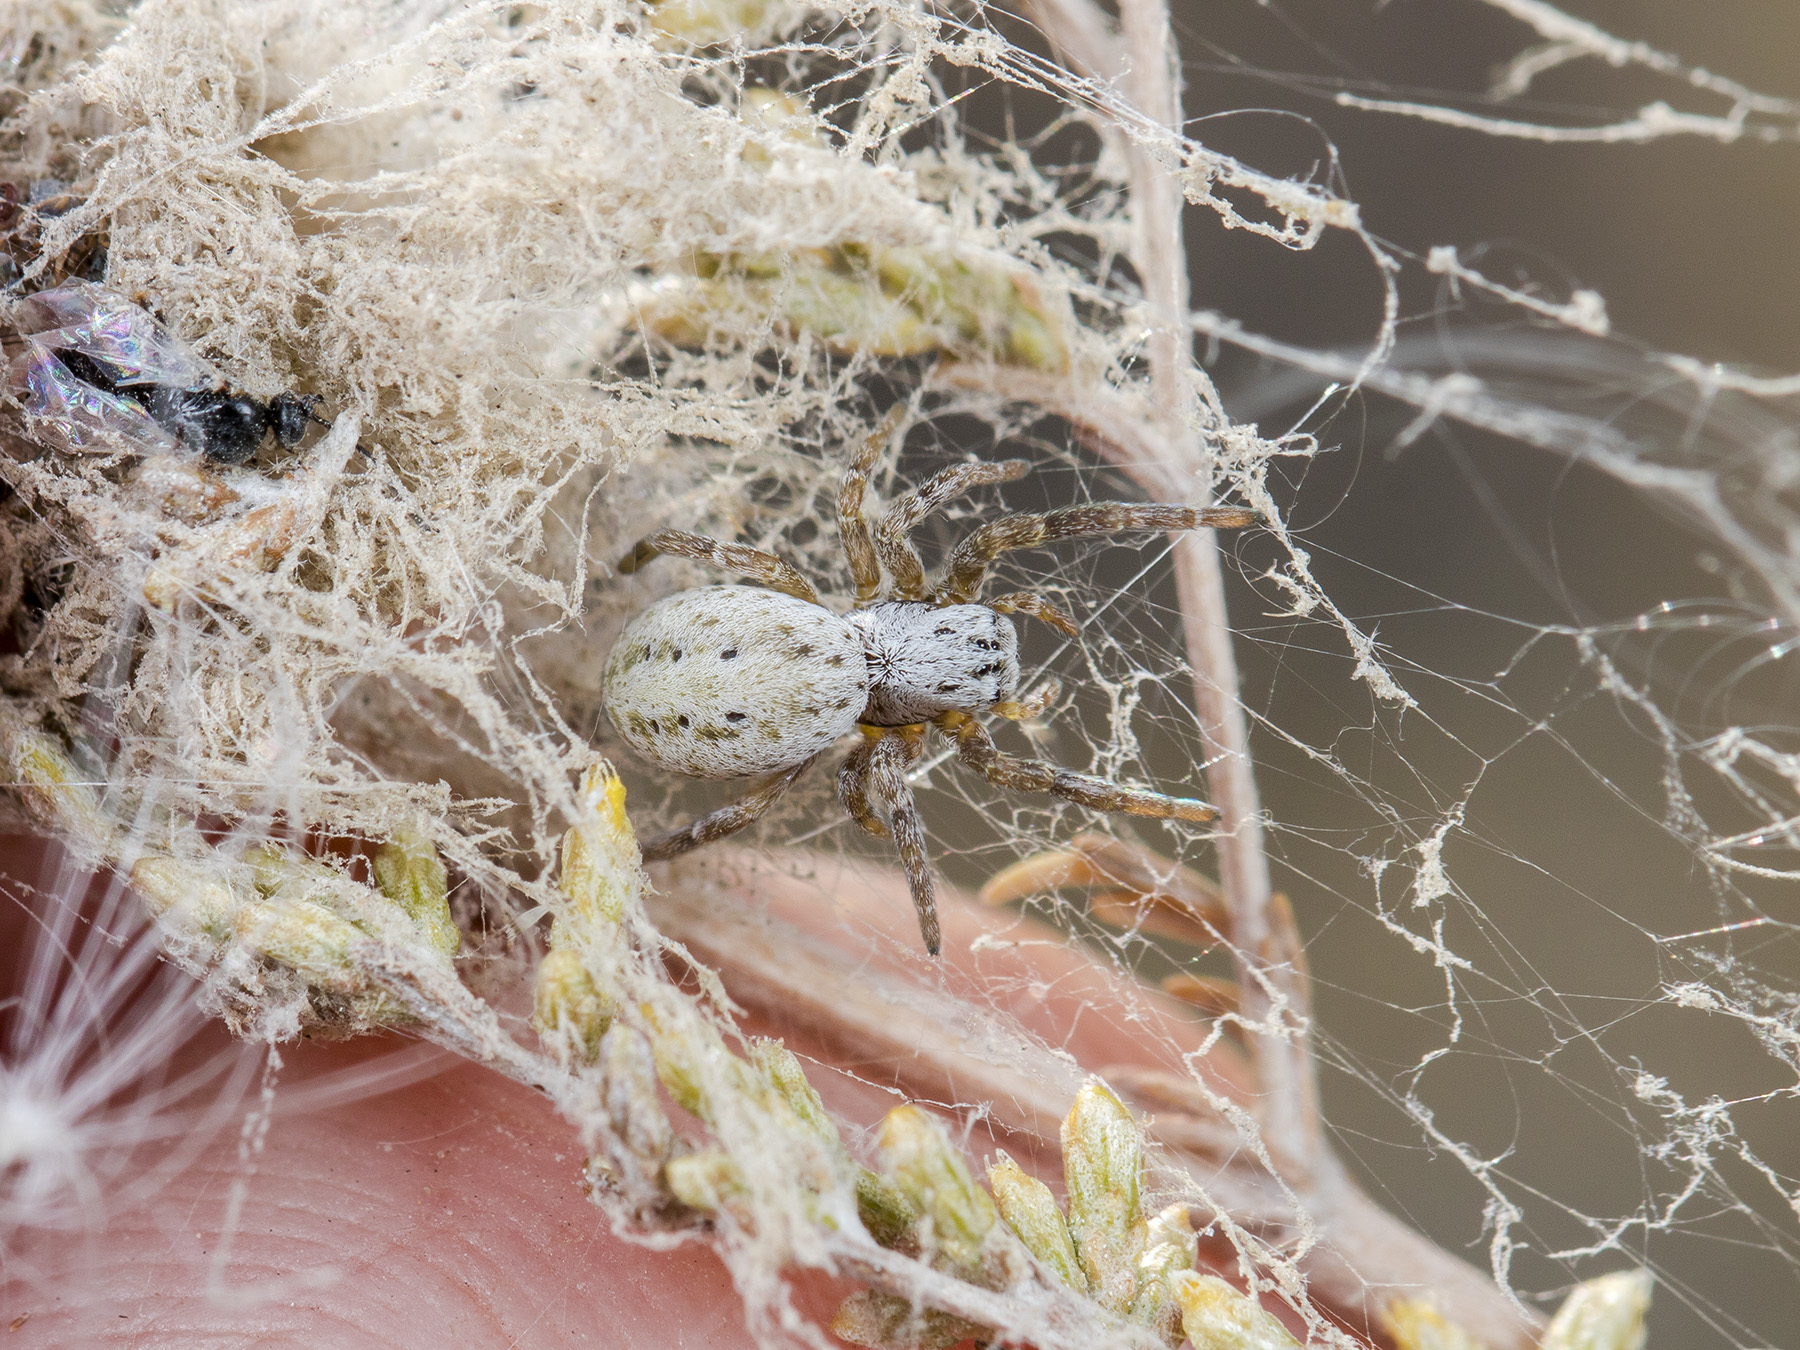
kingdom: Animalia
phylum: Arthropoda
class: Arachnida
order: Araneae
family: Eresidae
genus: Stegodyphus
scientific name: Stegodyphus lineatus
